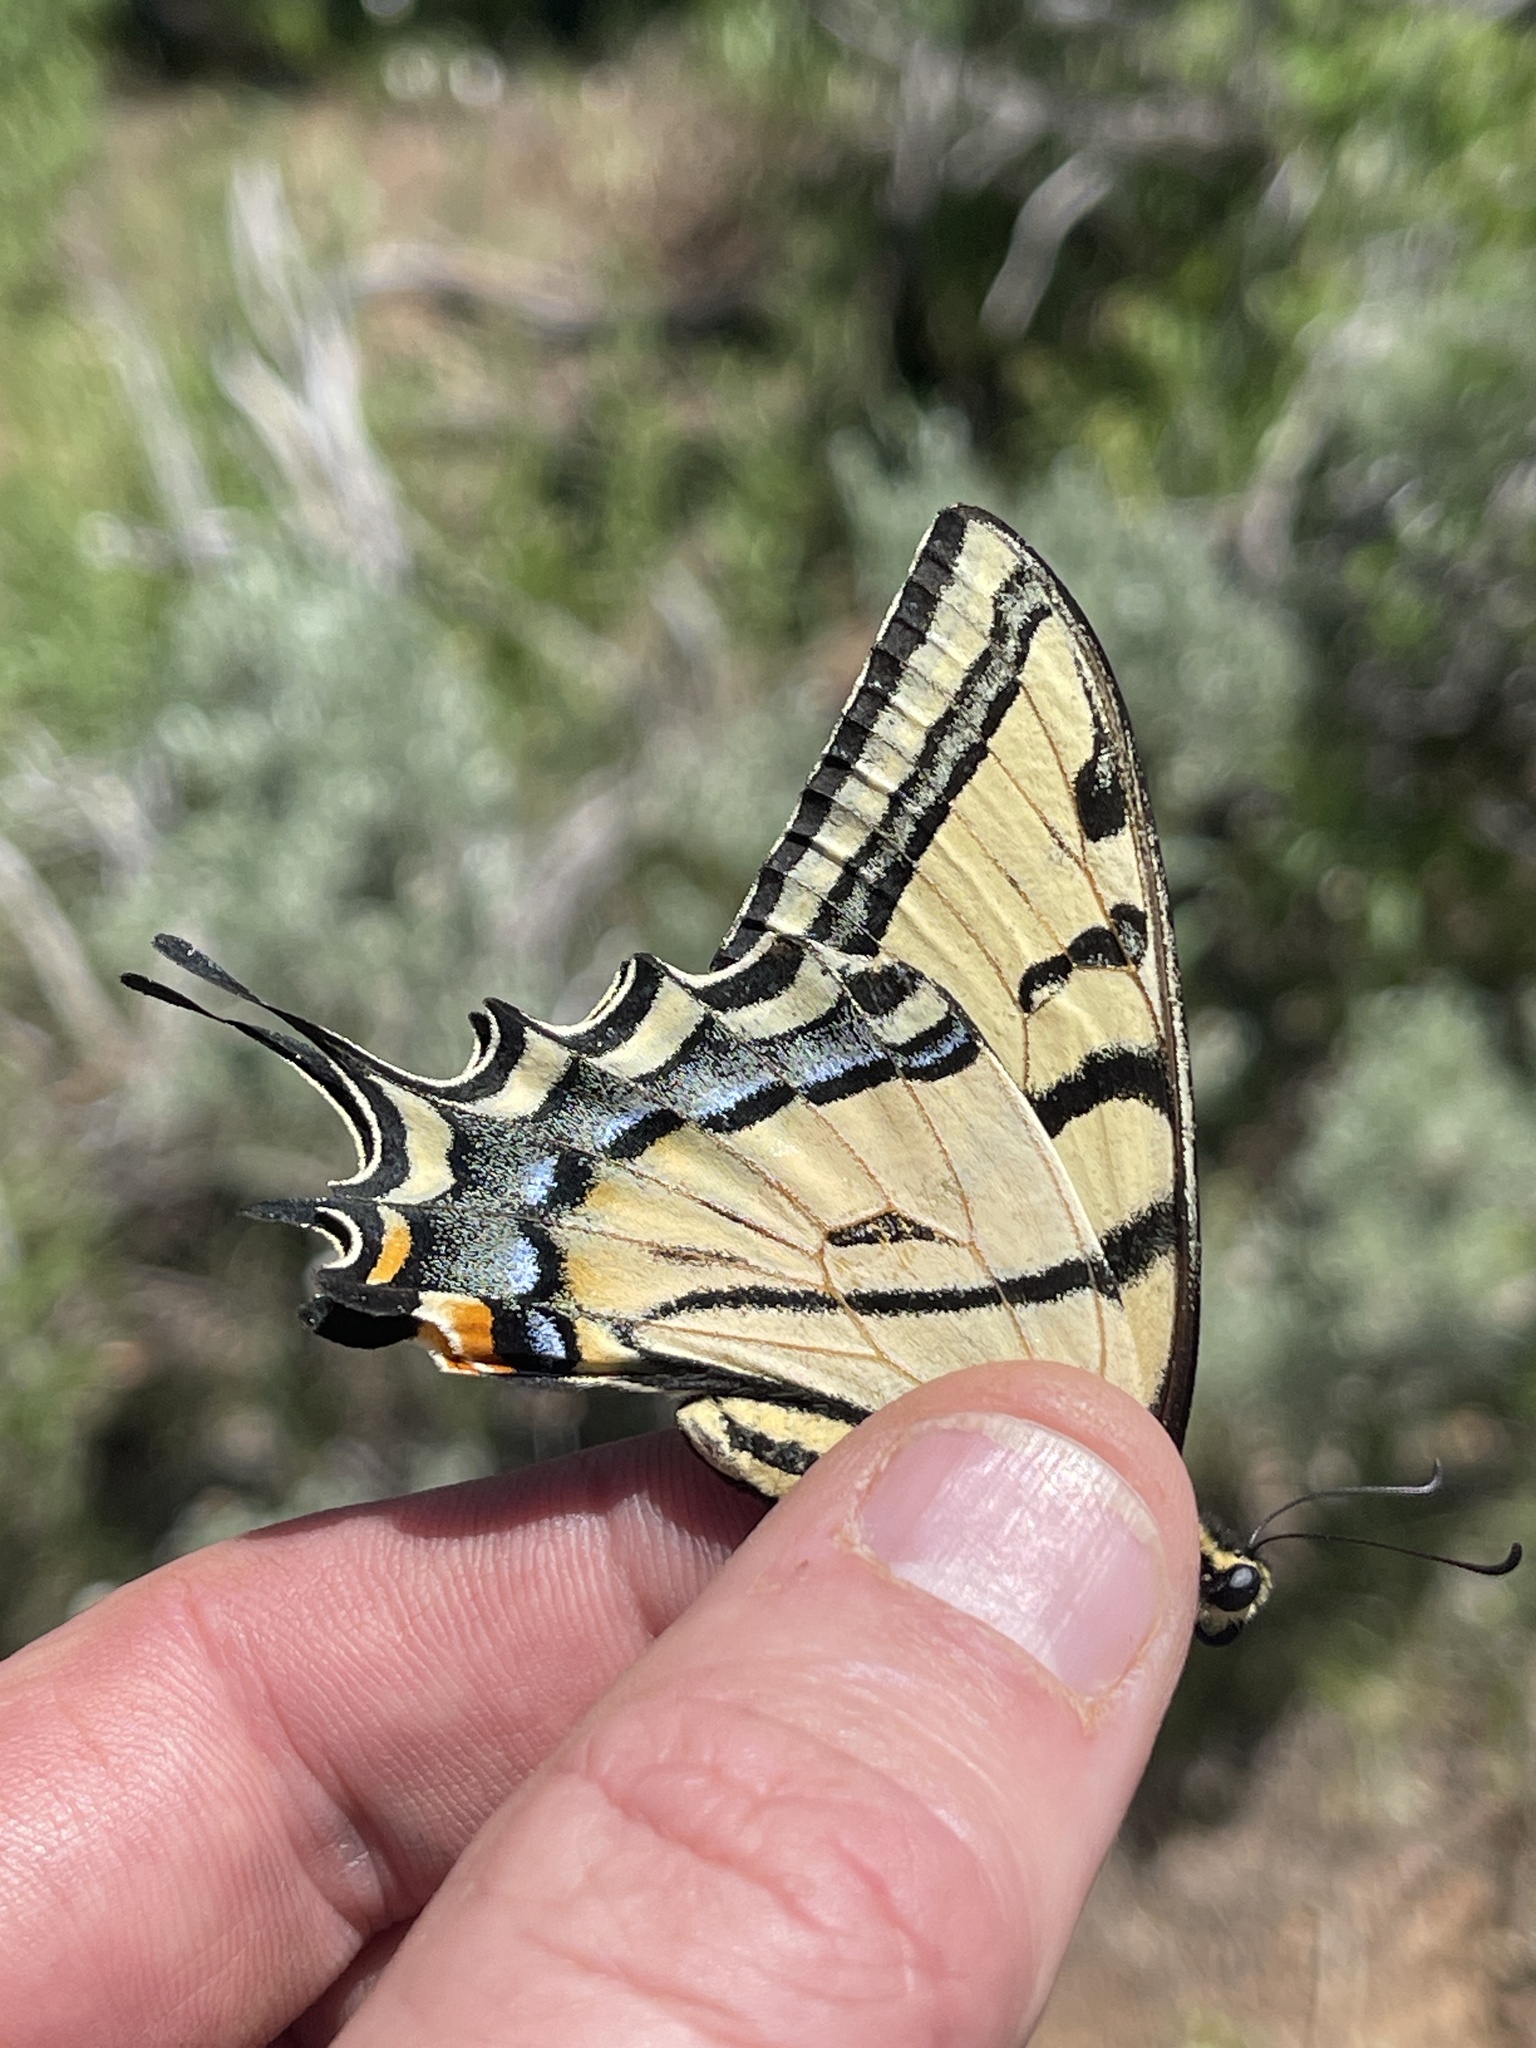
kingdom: Animalia
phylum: Arthropoda
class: Insecta
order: Lepidoptera
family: Papilionidae
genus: Papilio
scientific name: Papilio multicaudata
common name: Two-tailed tiger swallowtail
